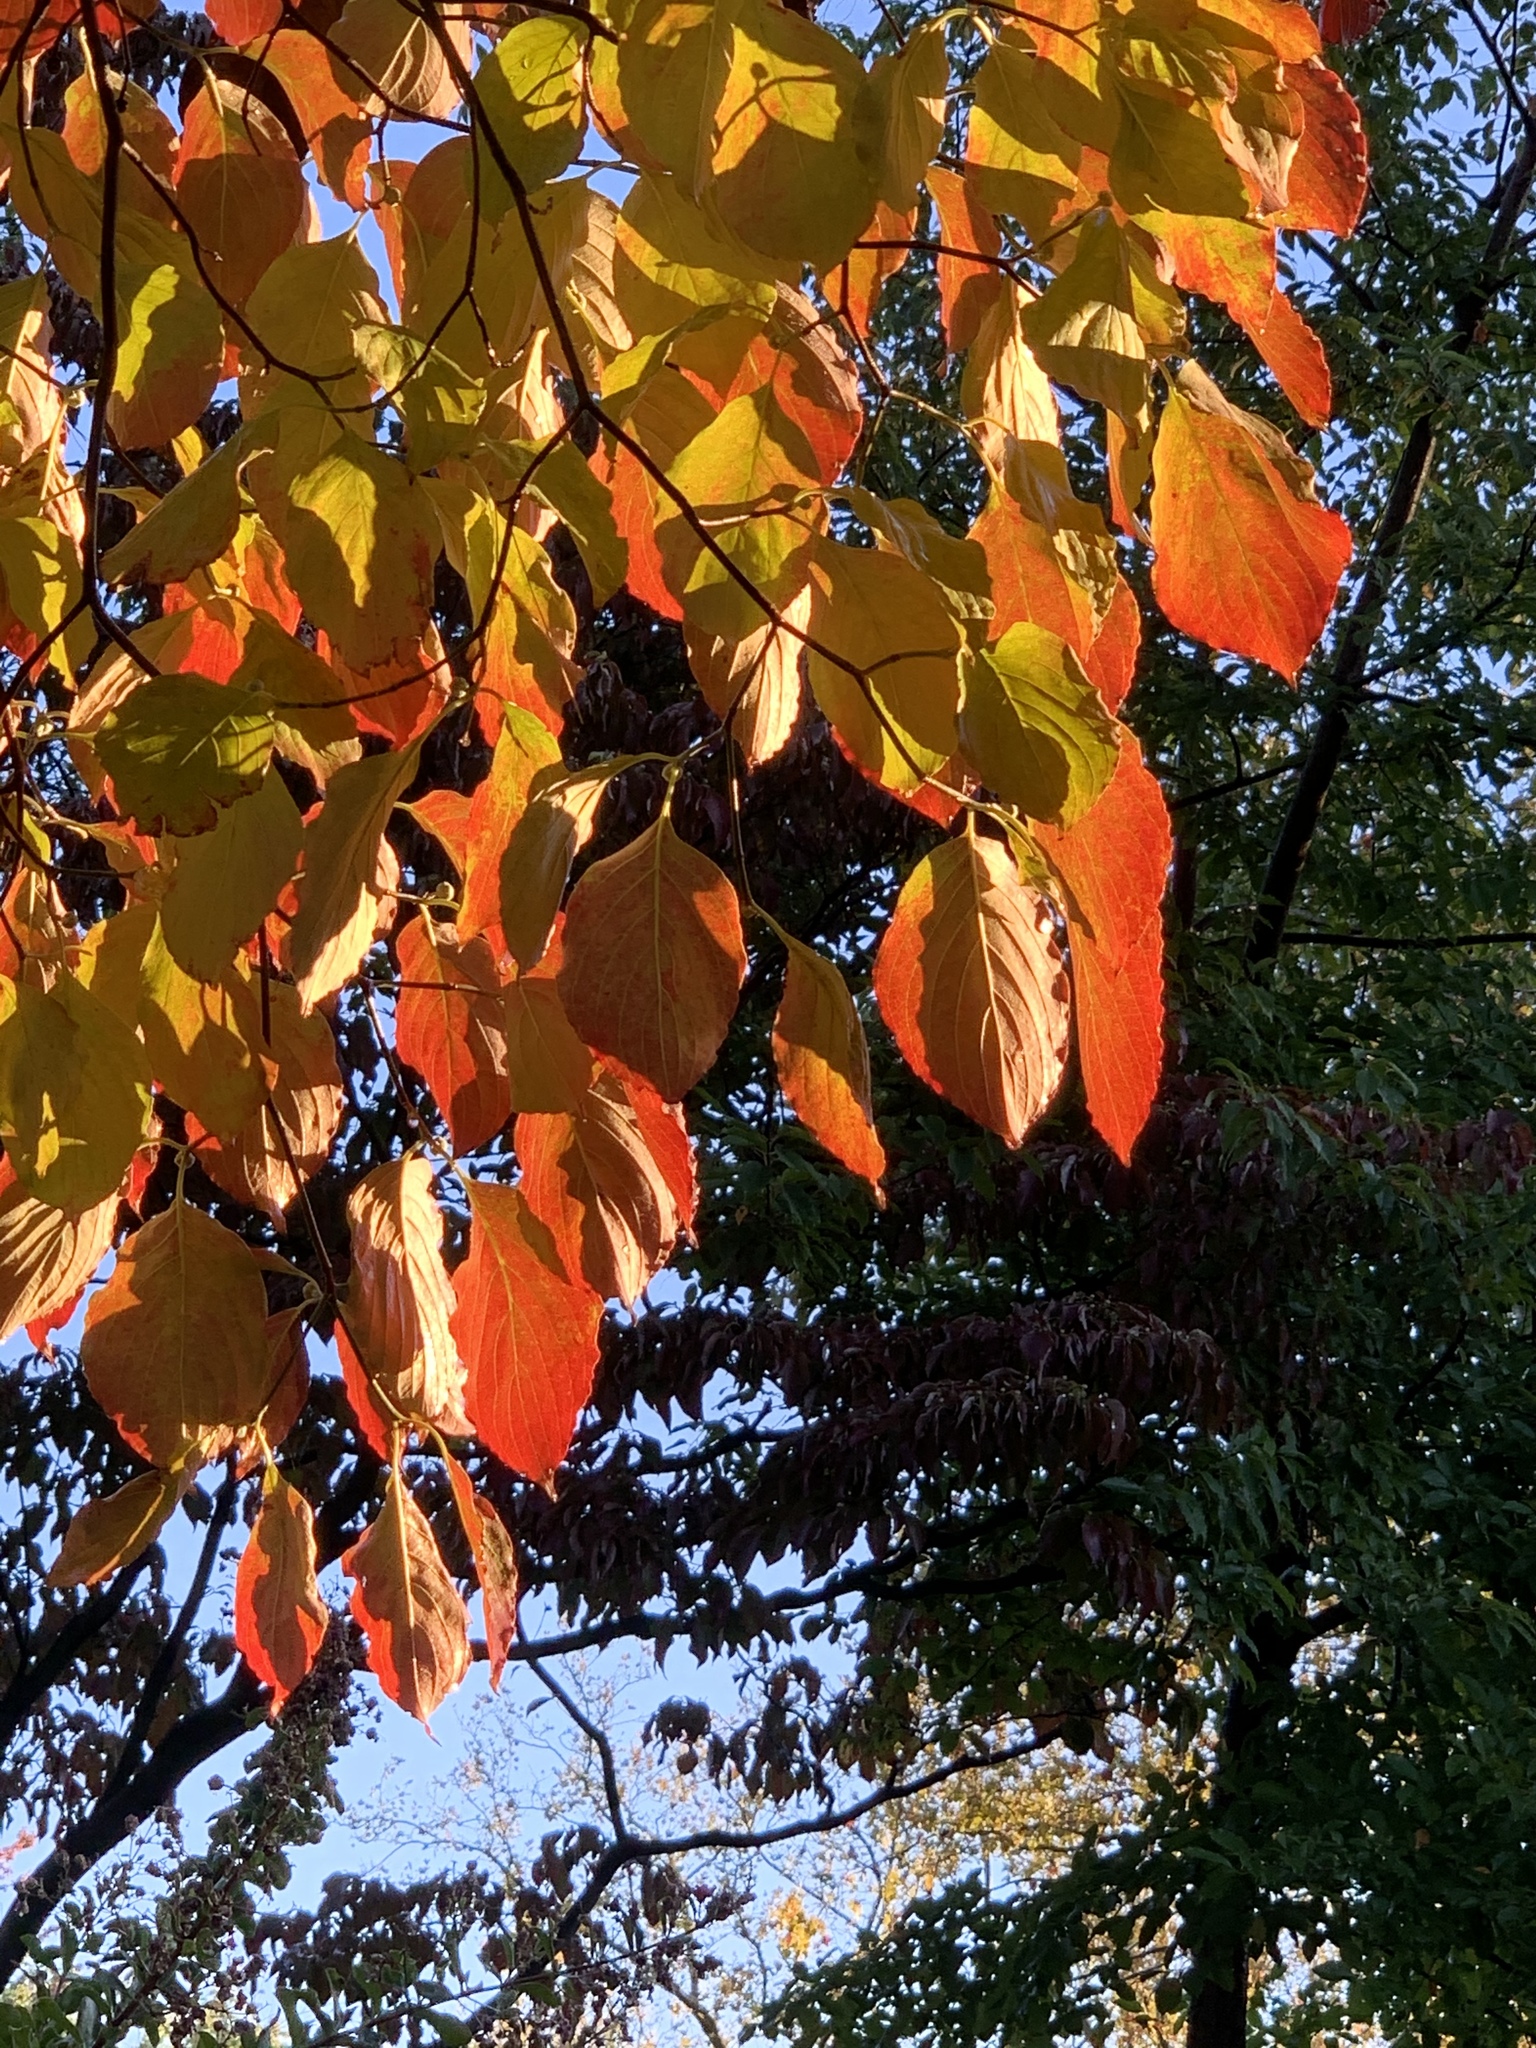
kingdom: Plantae
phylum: Tracheophyta
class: Magnoliopsida
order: Cornales
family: Cornaceae
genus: Cornus
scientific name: Cornus florida
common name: Flowering dogwood
